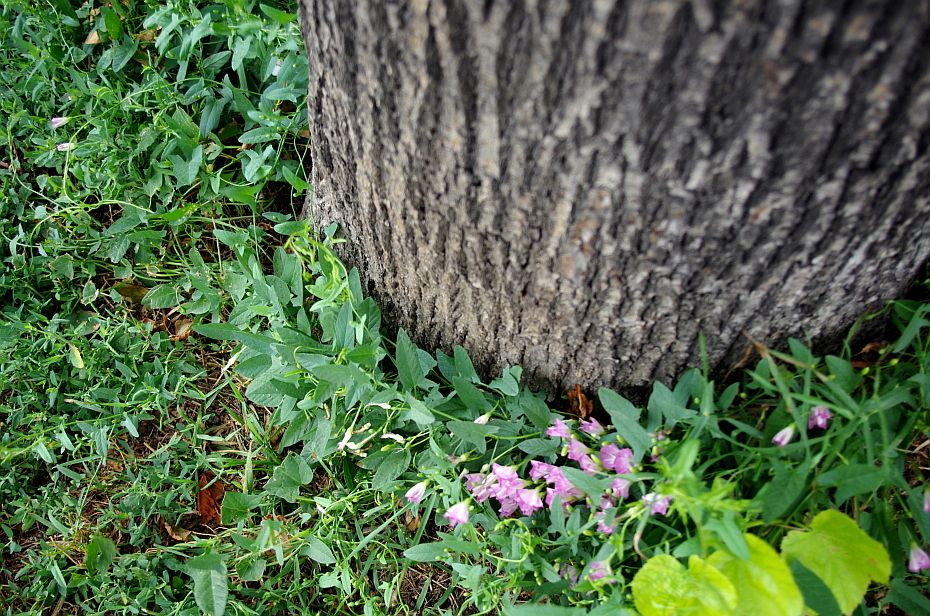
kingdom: Plantae
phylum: Tracheophyta
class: Magnoliopsida
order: Solanales
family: Convolvulaceae
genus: Convolvulus
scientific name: Convolvulus arvensis
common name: Field bindweed
